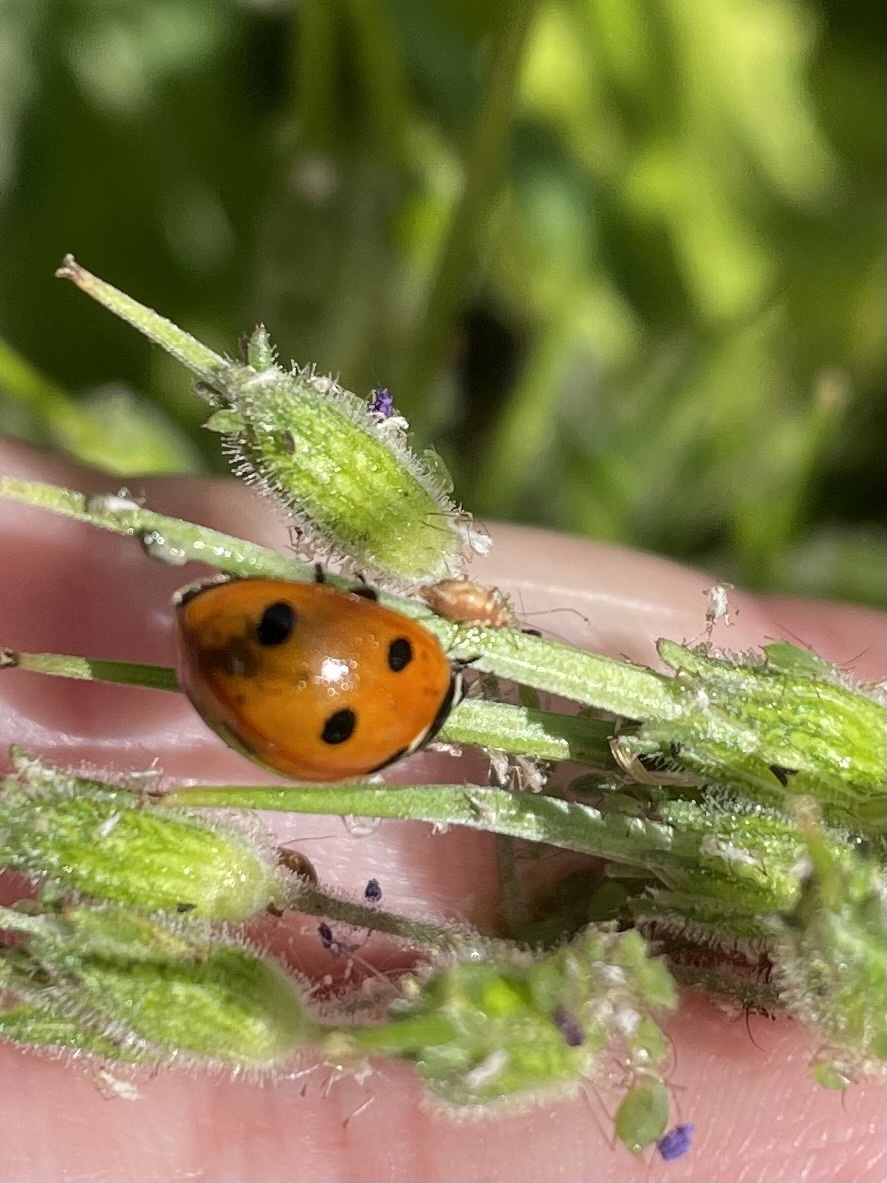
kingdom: Animalia
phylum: Arthropoda
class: Insecta
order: Coleoptera
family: Coccinellidae
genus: Coccinella
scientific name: Coccinella septempunctata
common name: Sevenspotted lady beetle
